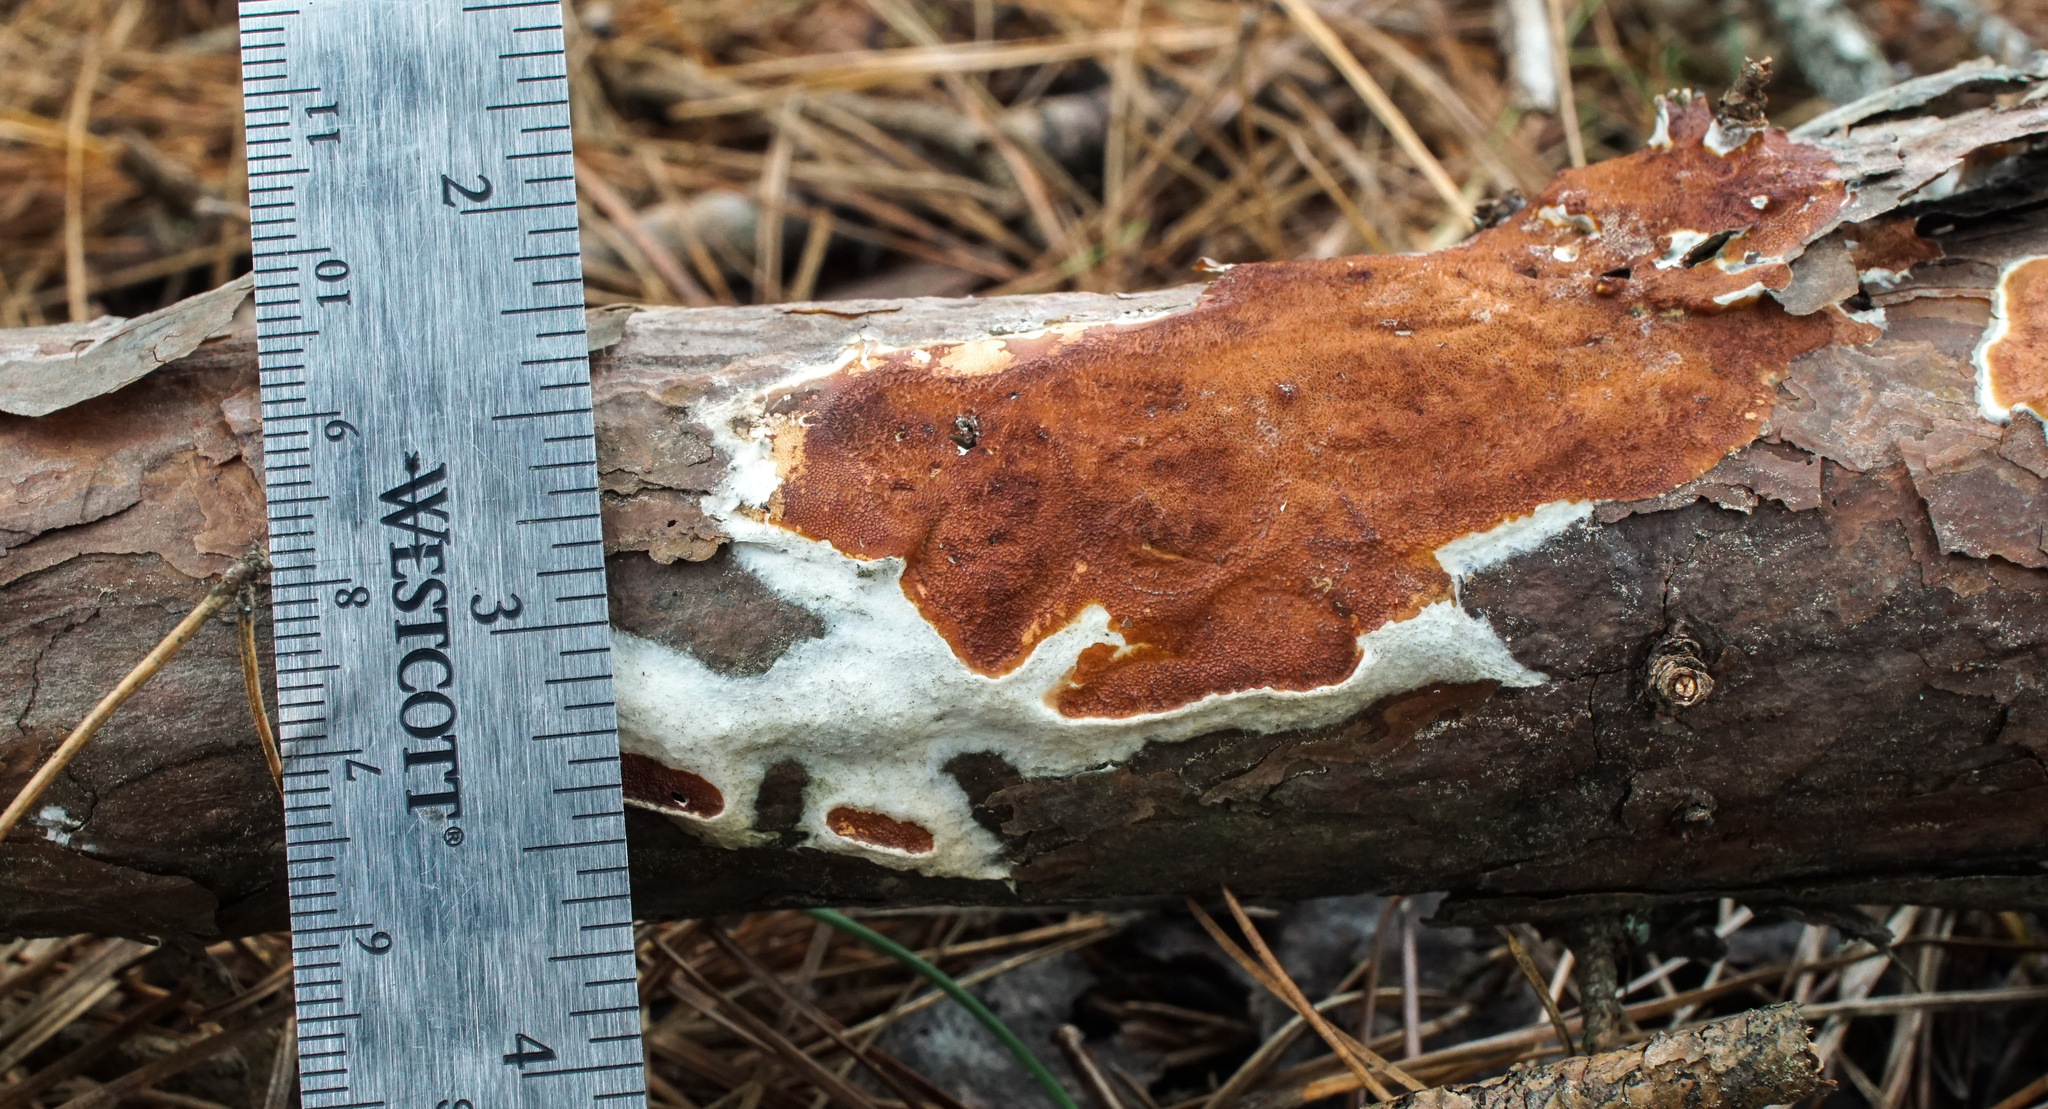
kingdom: Fungi
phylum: Basidiomycota
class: Agaricomycetes
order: Polyporales
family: Irpicaceae
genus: Meruliopsis
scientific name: Meruliopsis taxicola
